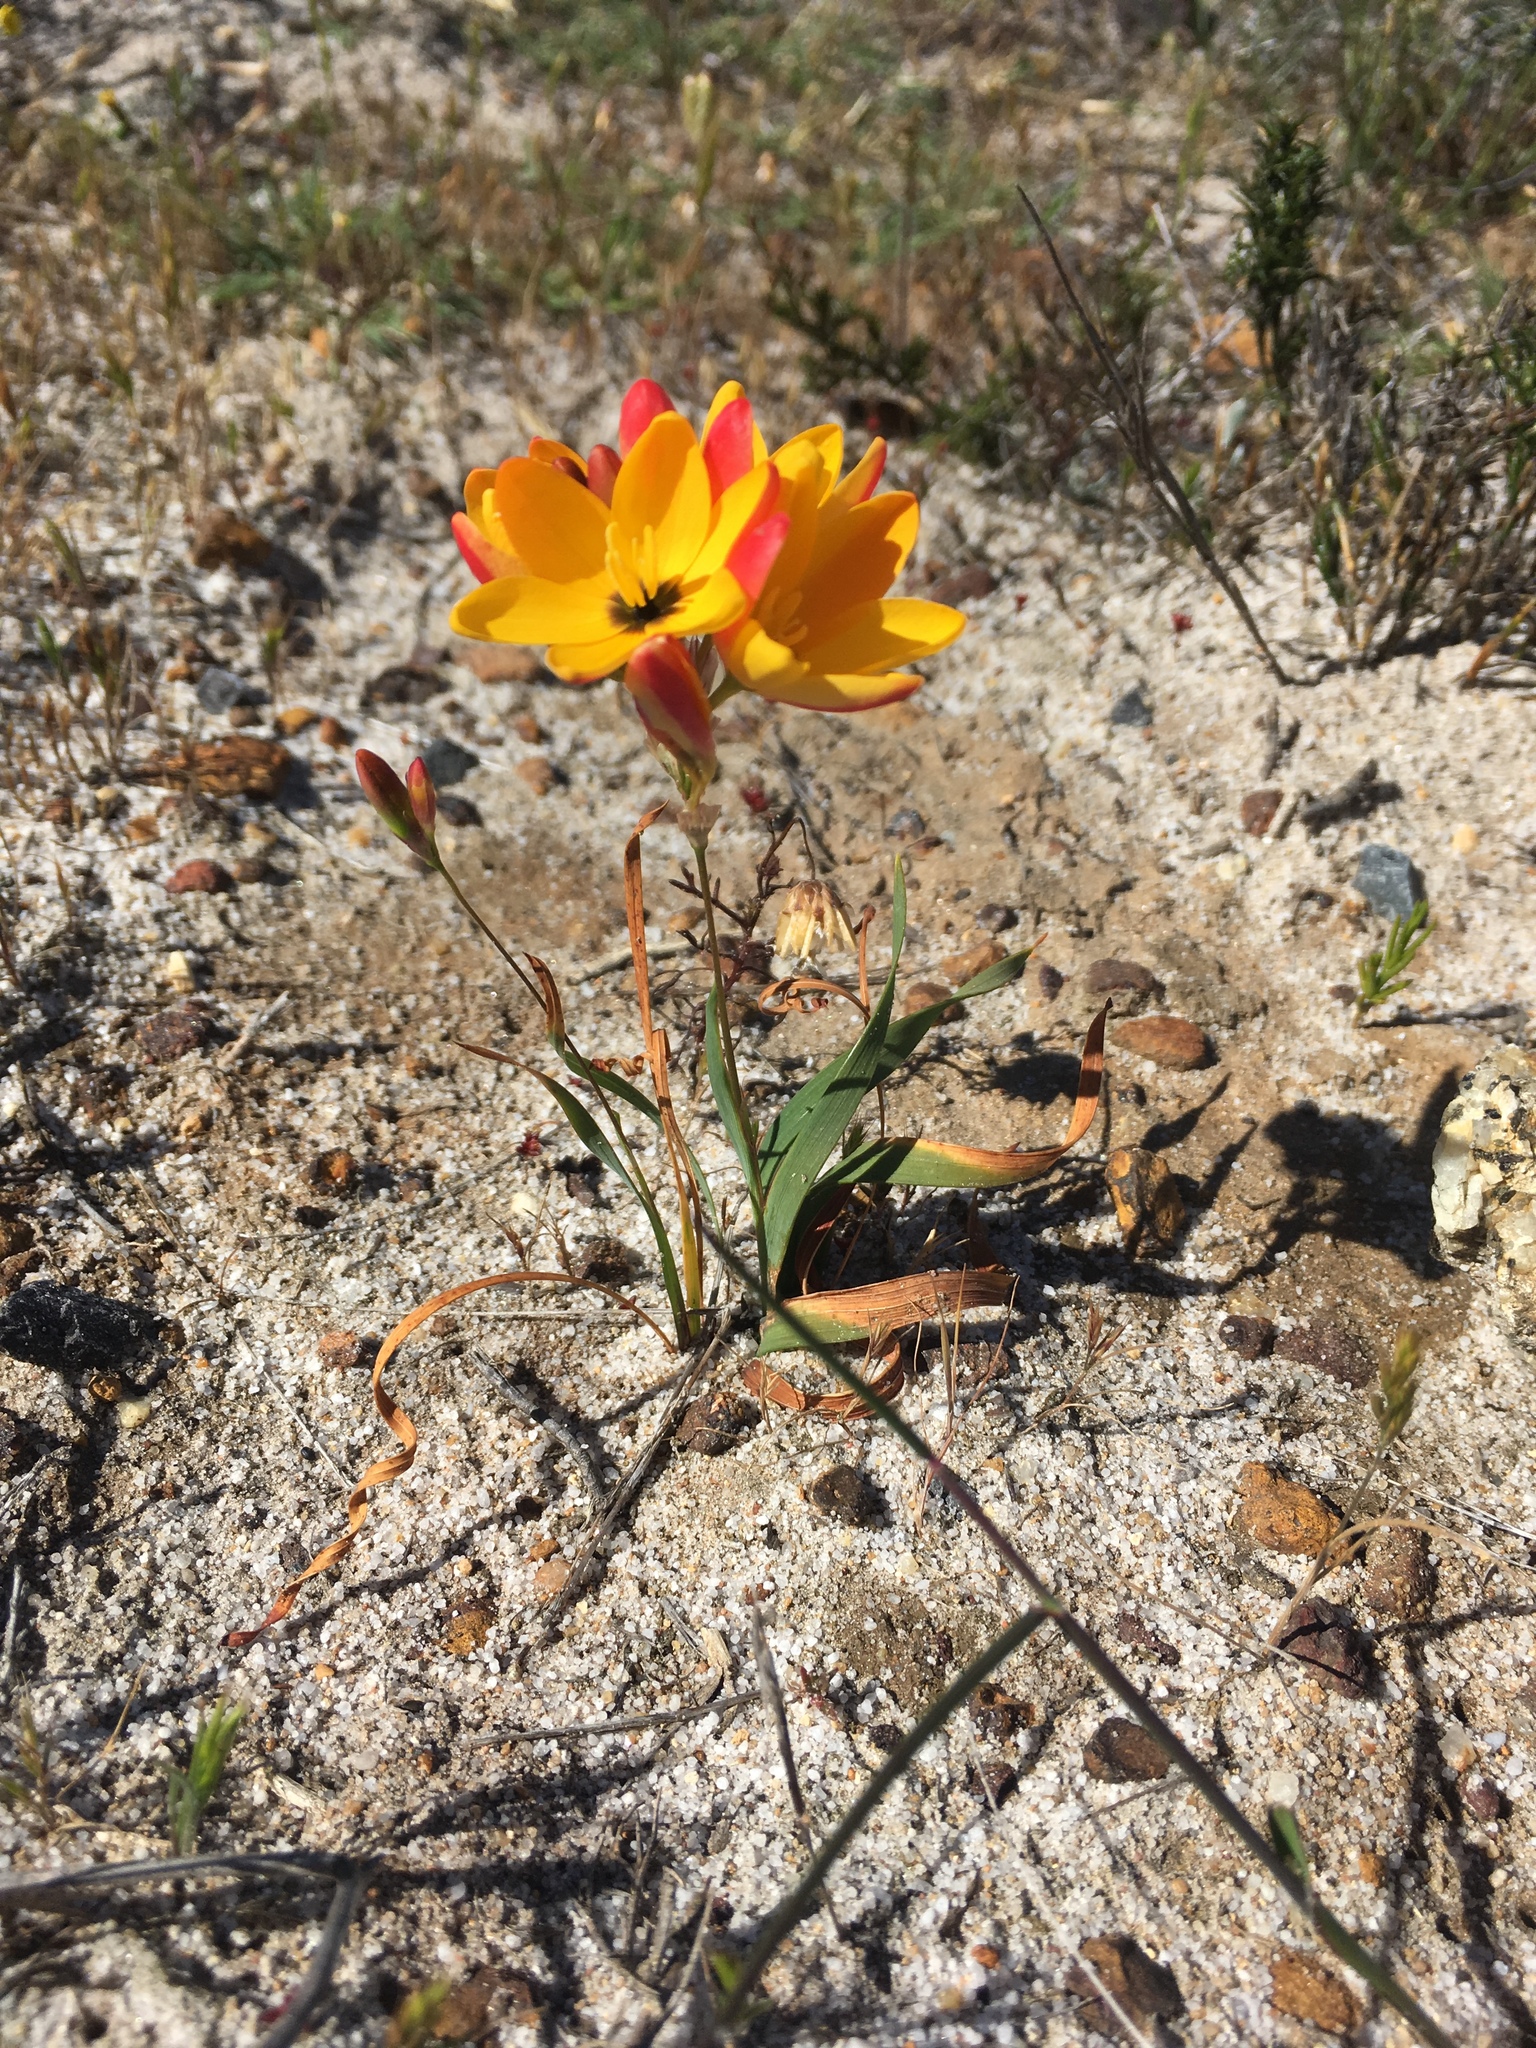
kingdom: Plantae
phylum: Tracheophyta
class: Liliopsida
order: Asparagales
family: Iridaceae
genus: Ixia
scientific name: Ixia dubia
